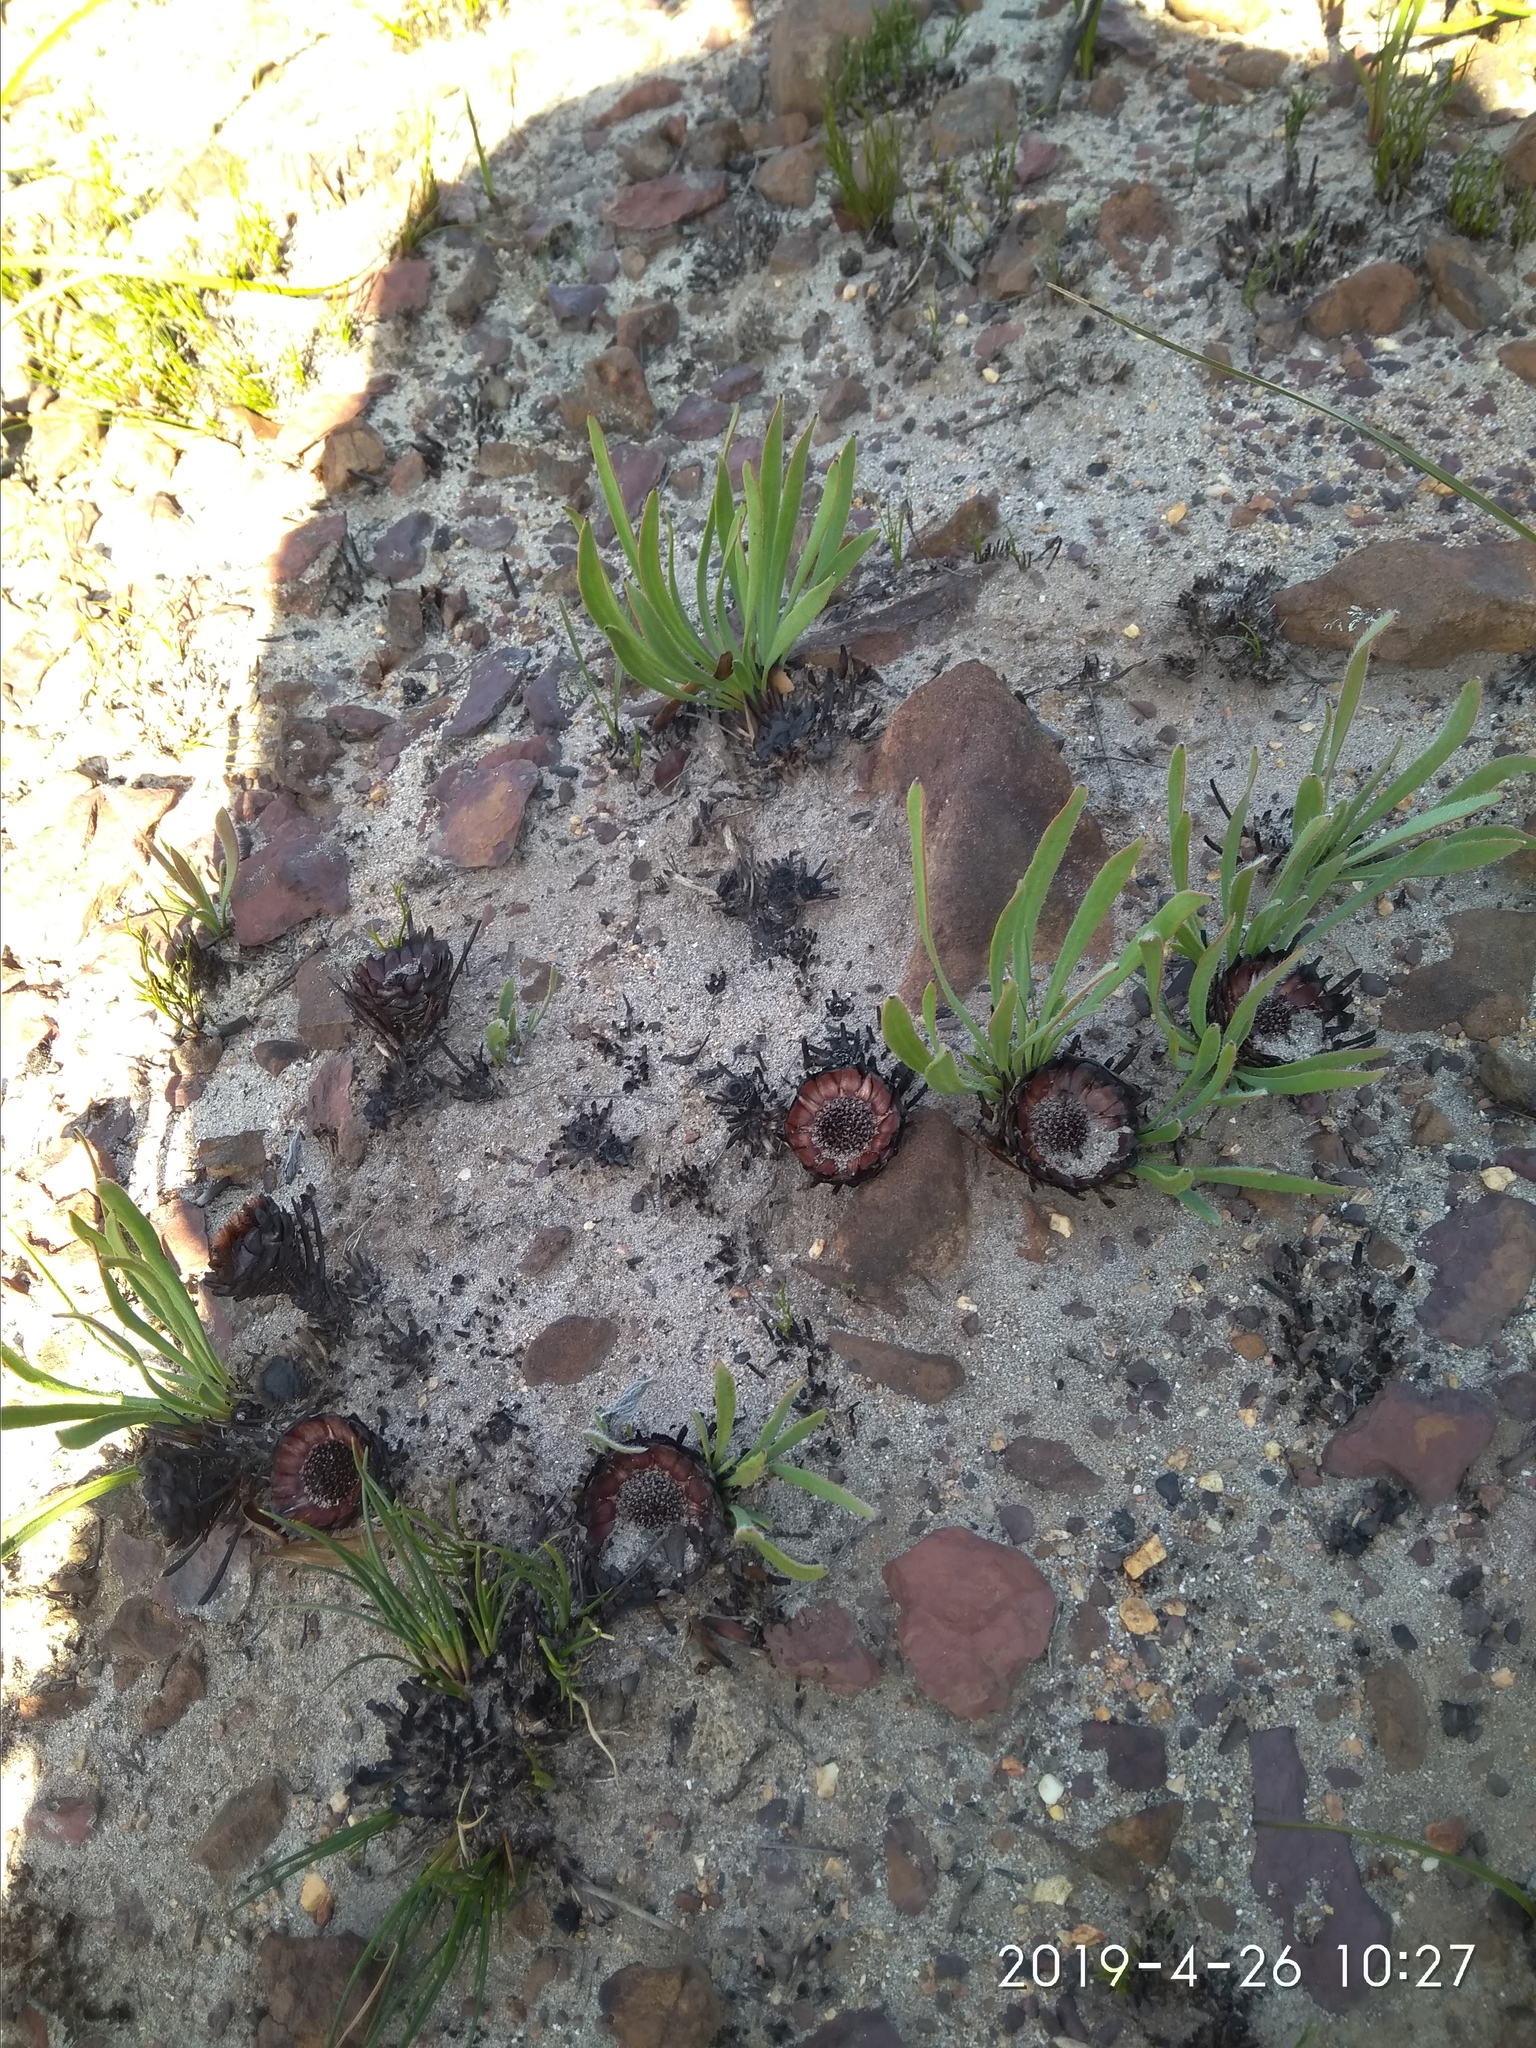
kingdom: Plantae
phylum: Tracheophyta
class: Magnoliopsida
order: Proteales
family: Proteaceae
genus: Protea
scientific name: Protea scabra
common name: Sandpaper-leaf sugarbush
